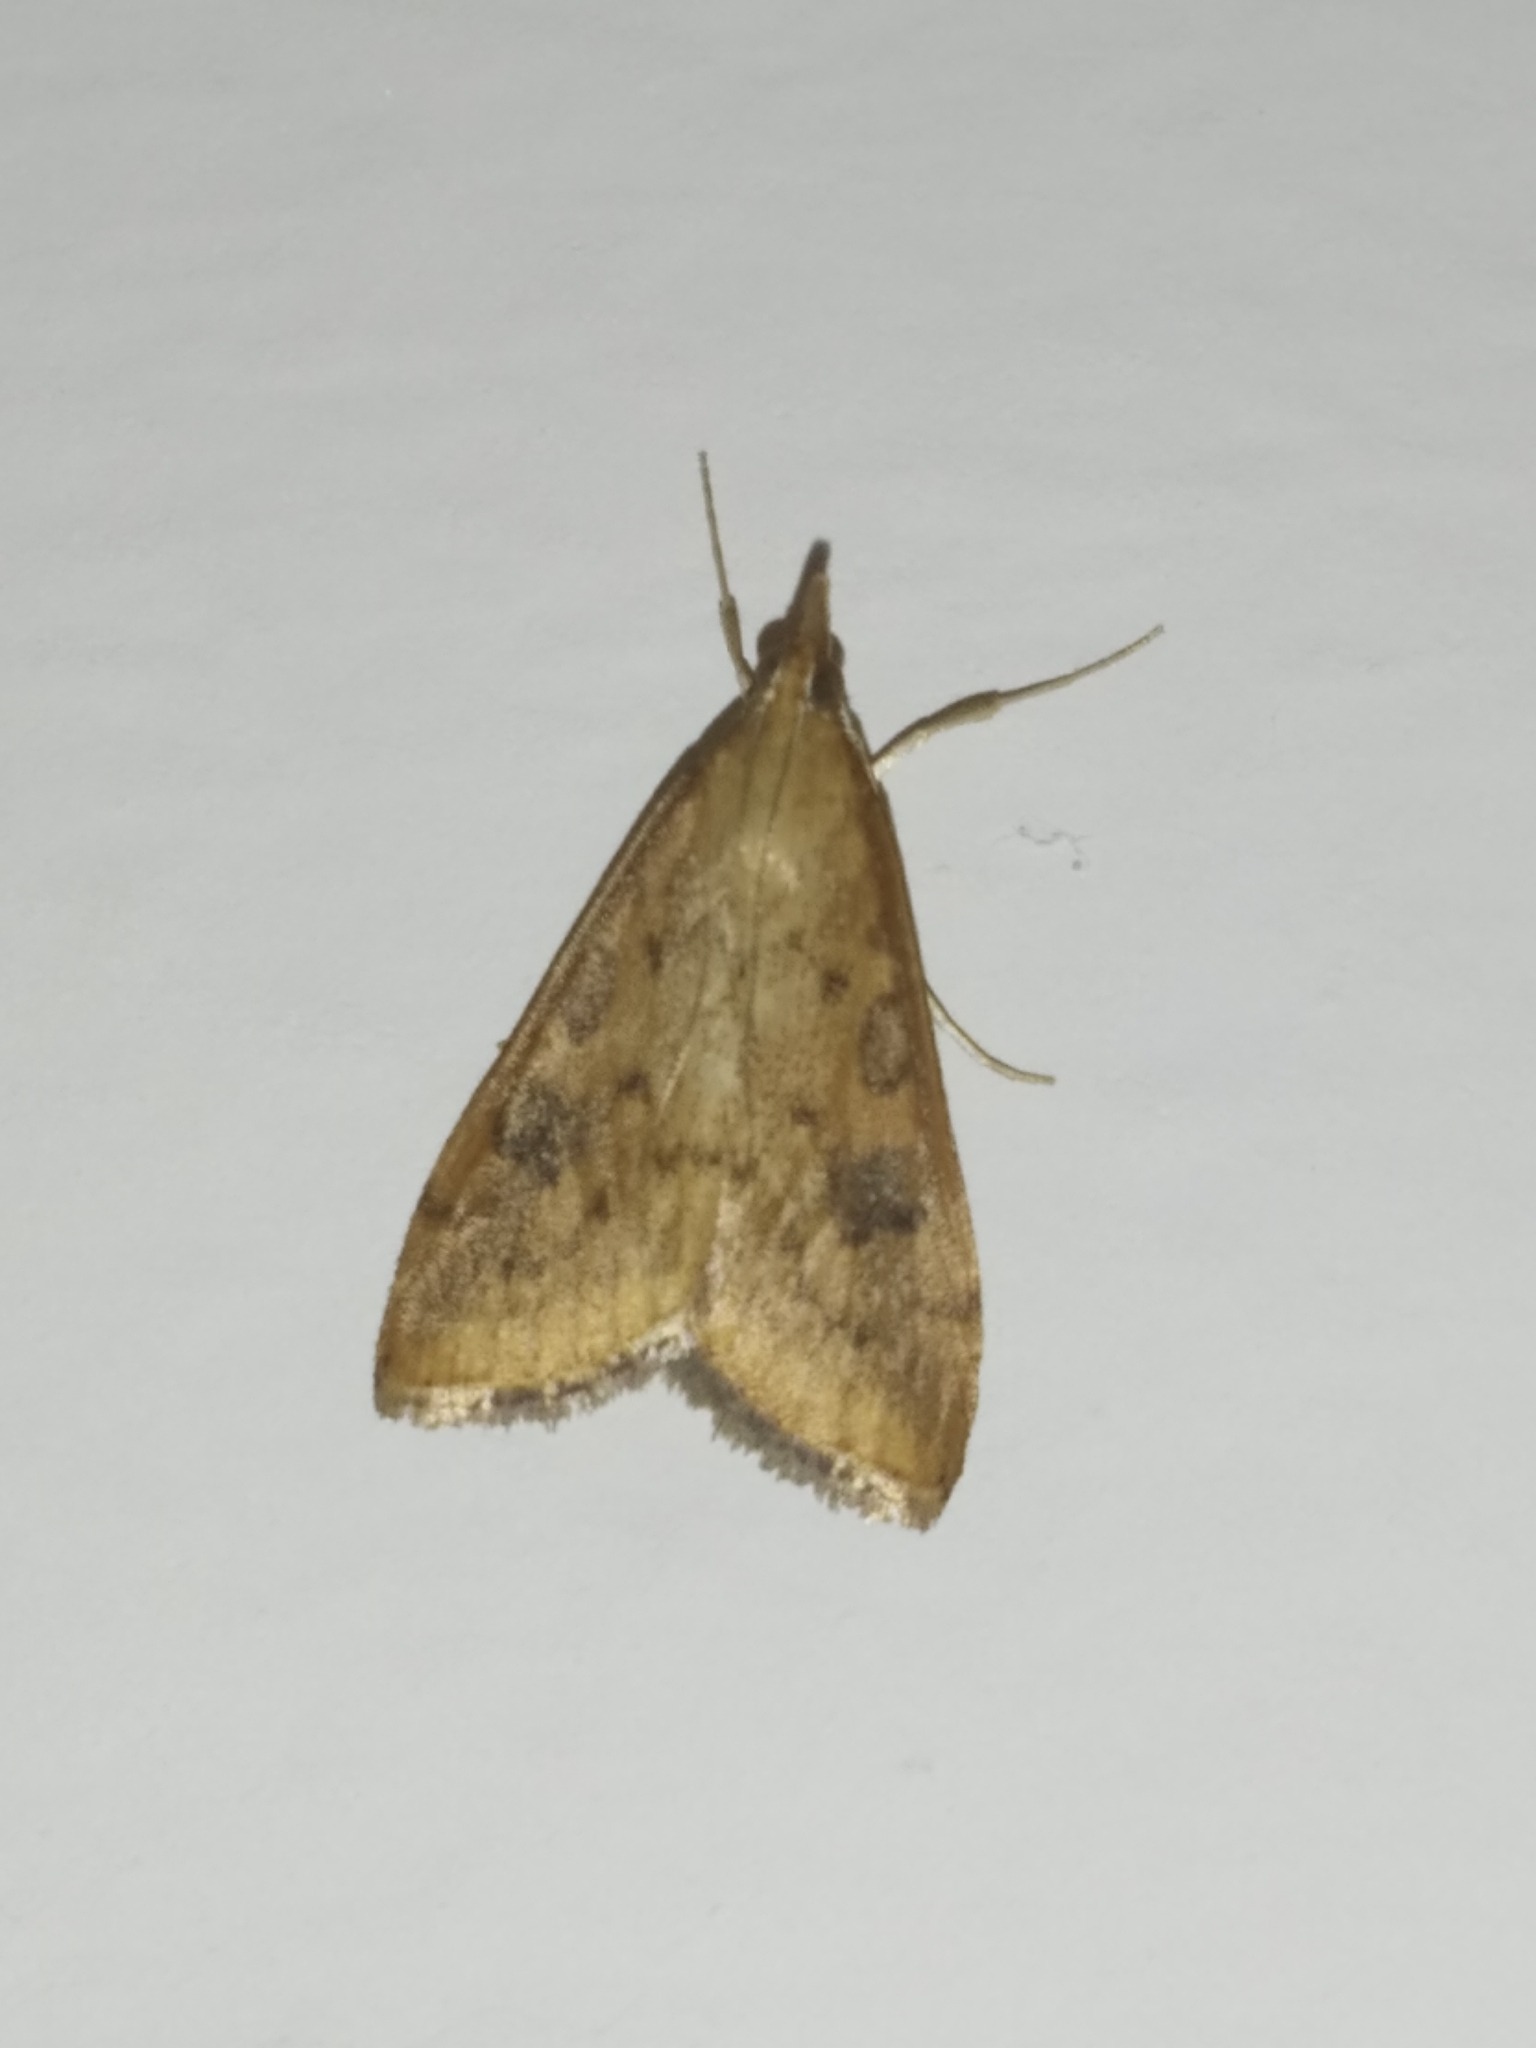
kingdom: Animalia
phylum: Arthropoda
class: Insecta
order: Lepidoptera
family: Crambidae
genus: Udea
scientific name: Udea ferrugalis
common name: Rusty dot
